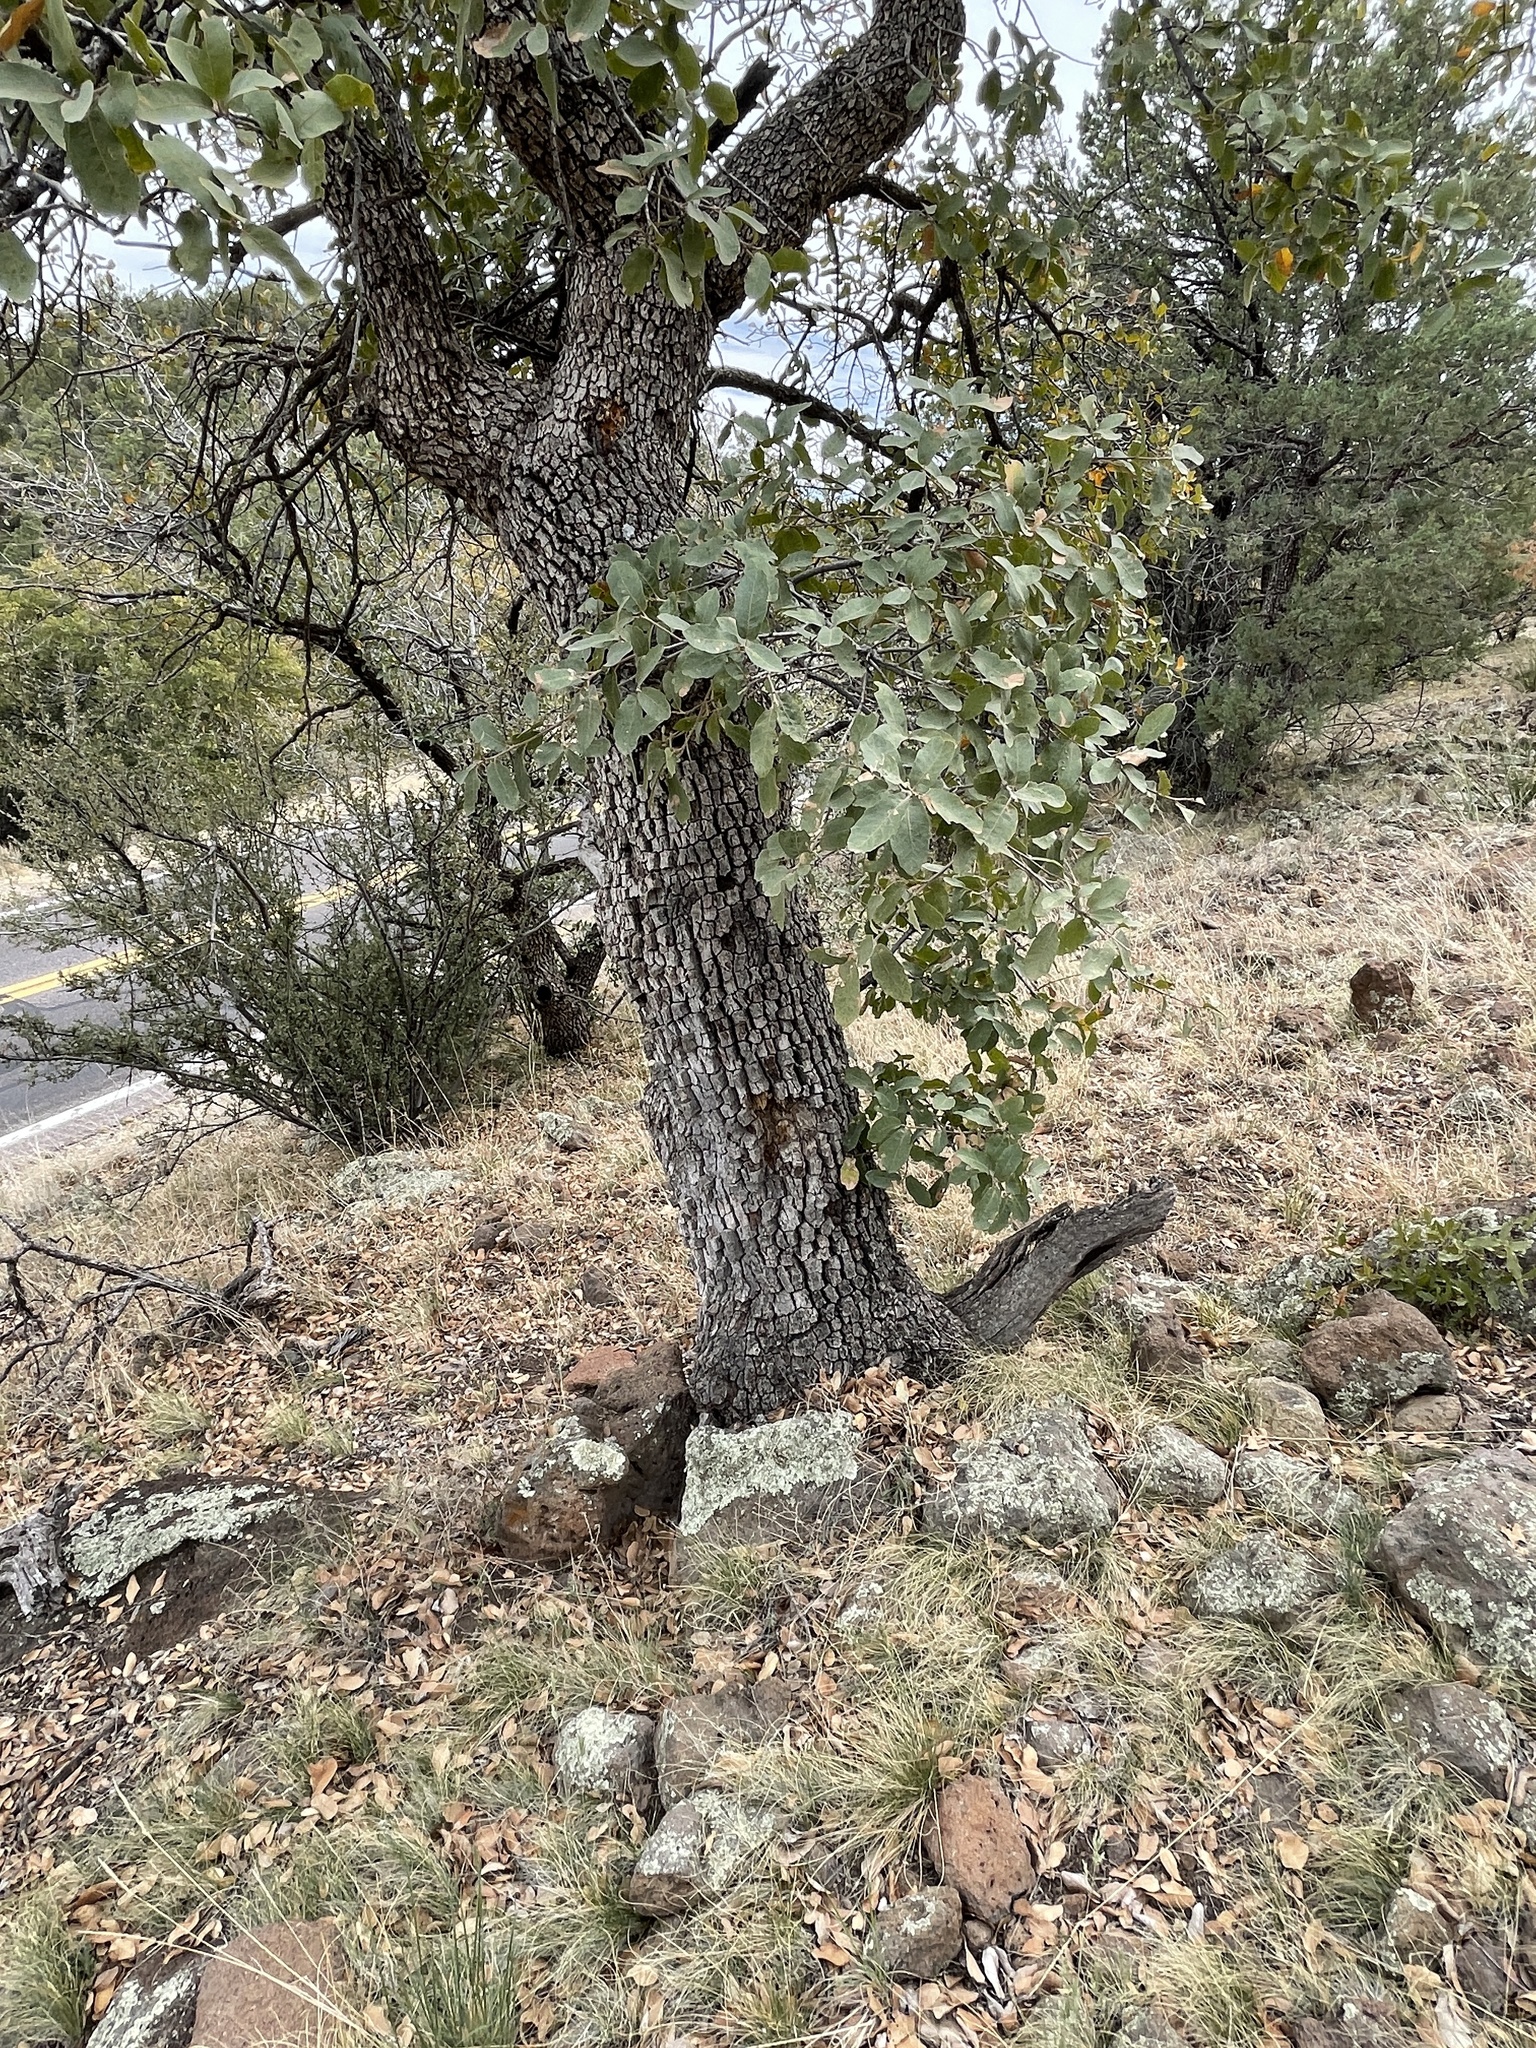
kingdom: Plantae
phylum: Tracheophyta
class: Magnoliopsida
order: Fagales
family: Fagaceae
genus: Quercus
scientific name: Quercus arizonica
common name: Arizona white oak
